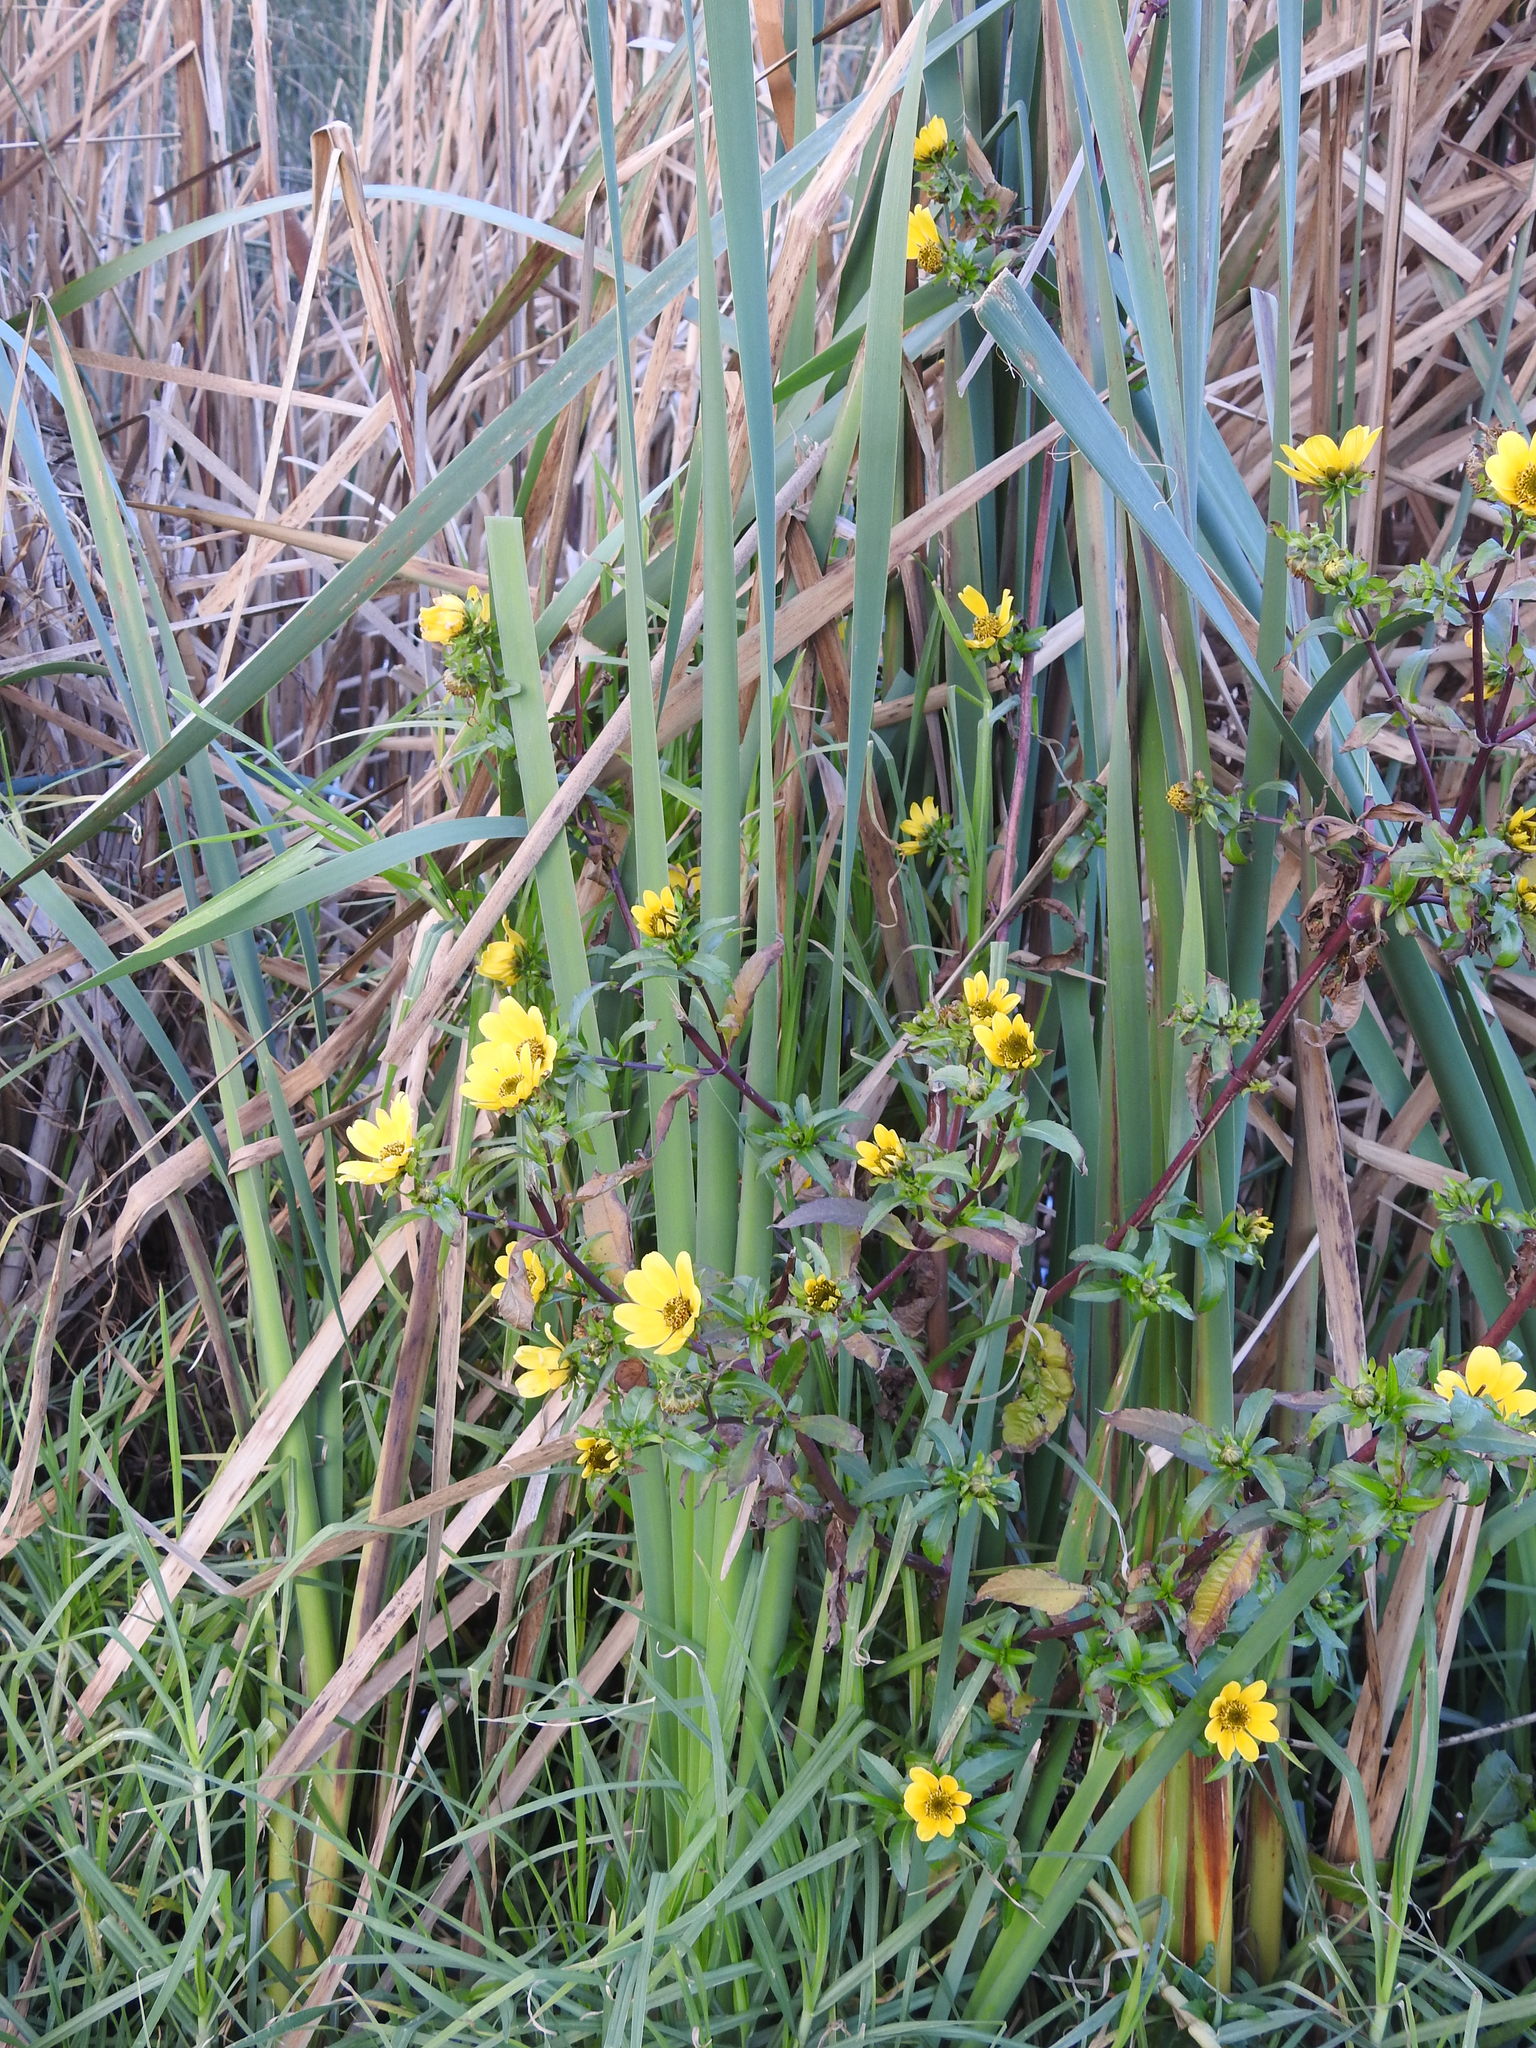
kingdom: Plantae
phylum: Tracheophyta
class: Magnoliopsida
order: Asterales
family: Asteraceae
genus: Bidens
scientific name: Bidens laevis
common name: Larger bur-marigold
